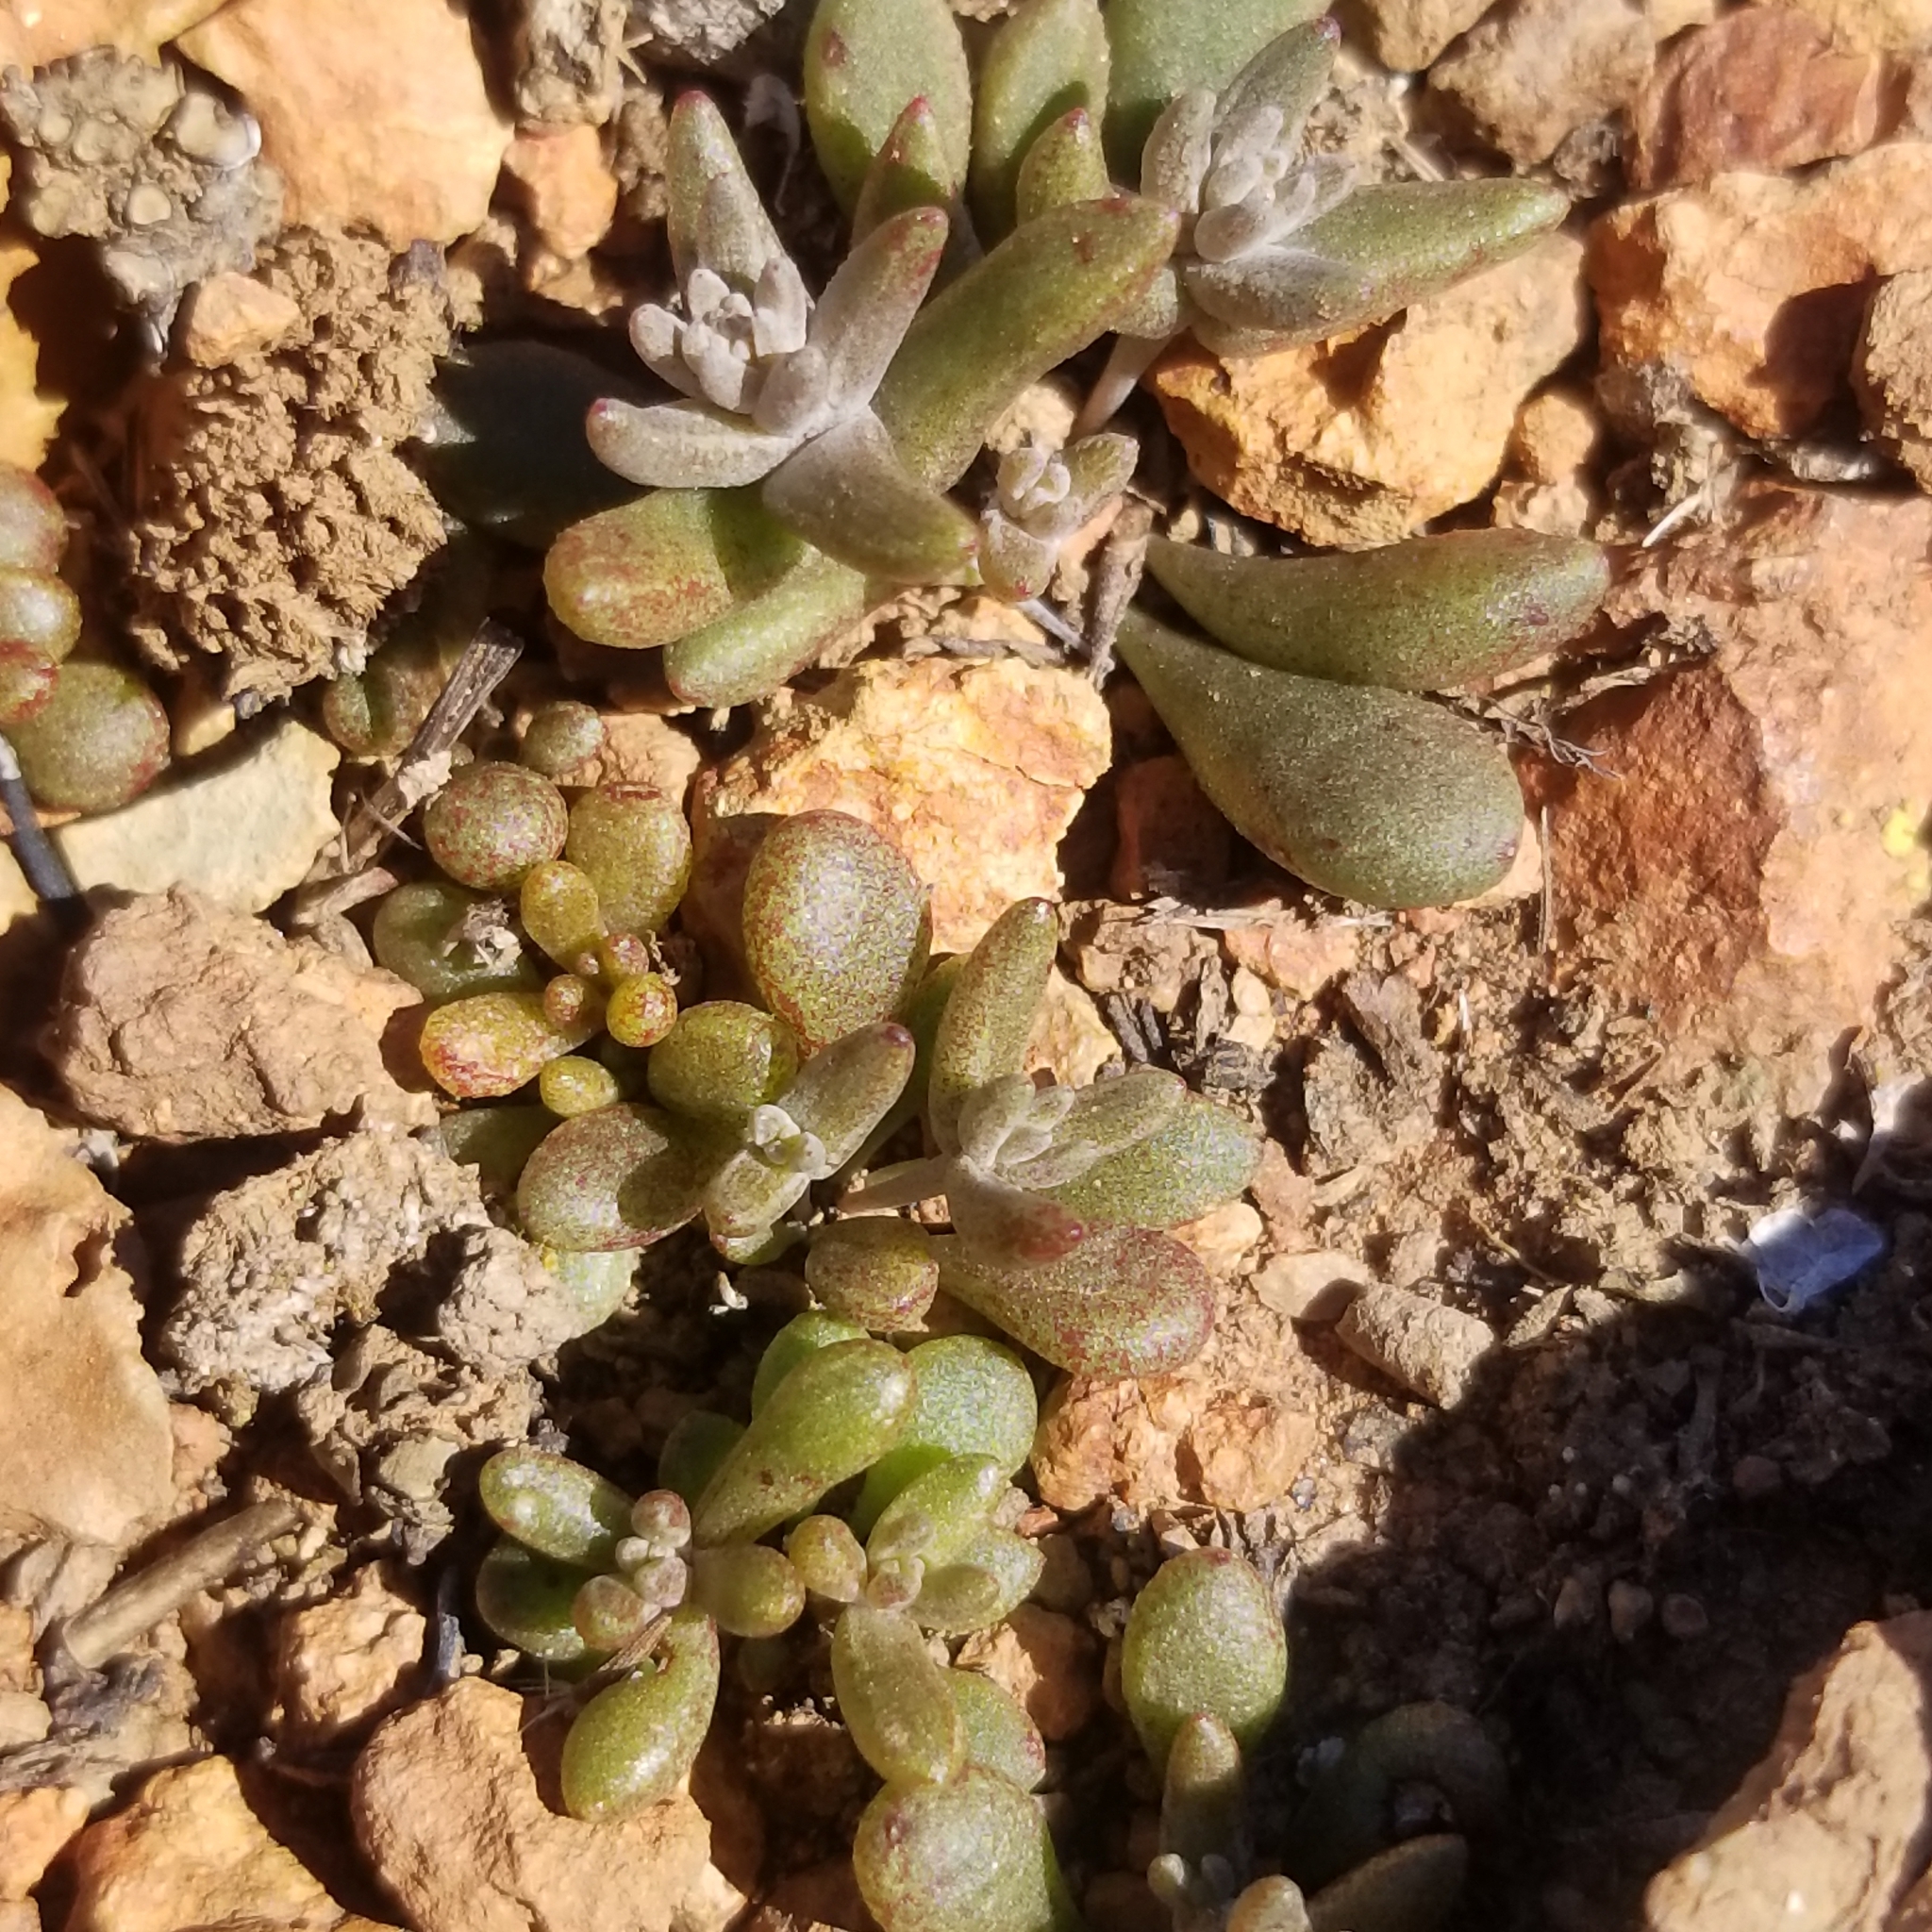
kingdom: Plantae
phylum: Tracheophyta
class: Magnoliopsida
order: Saxifragales
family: Crassulaceae
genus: Dudleya
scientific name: Dudleya variegata
